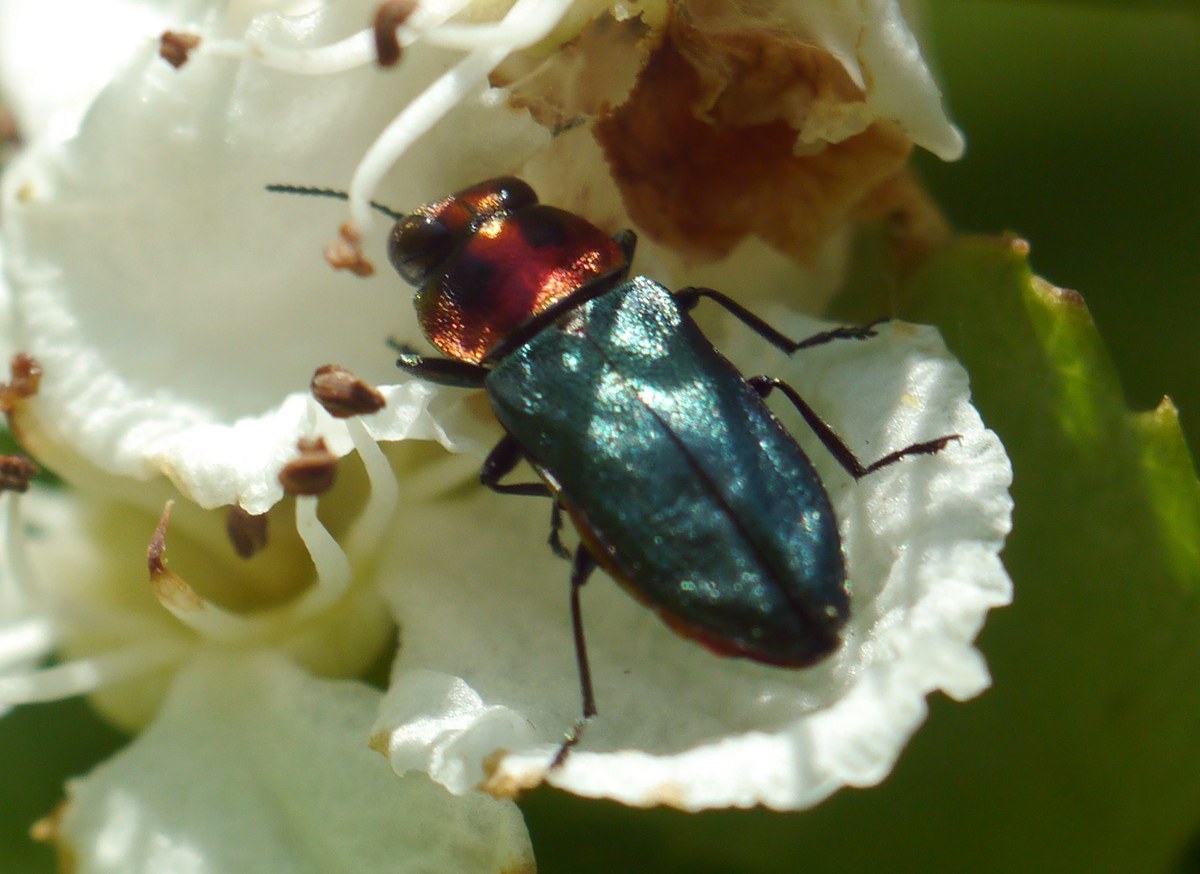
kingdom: Animalia
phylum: Arthropoda
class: Insecta
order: Coleoptera
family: Buprestidae
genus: Anthaxia
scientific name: Anthaxia nitidula
